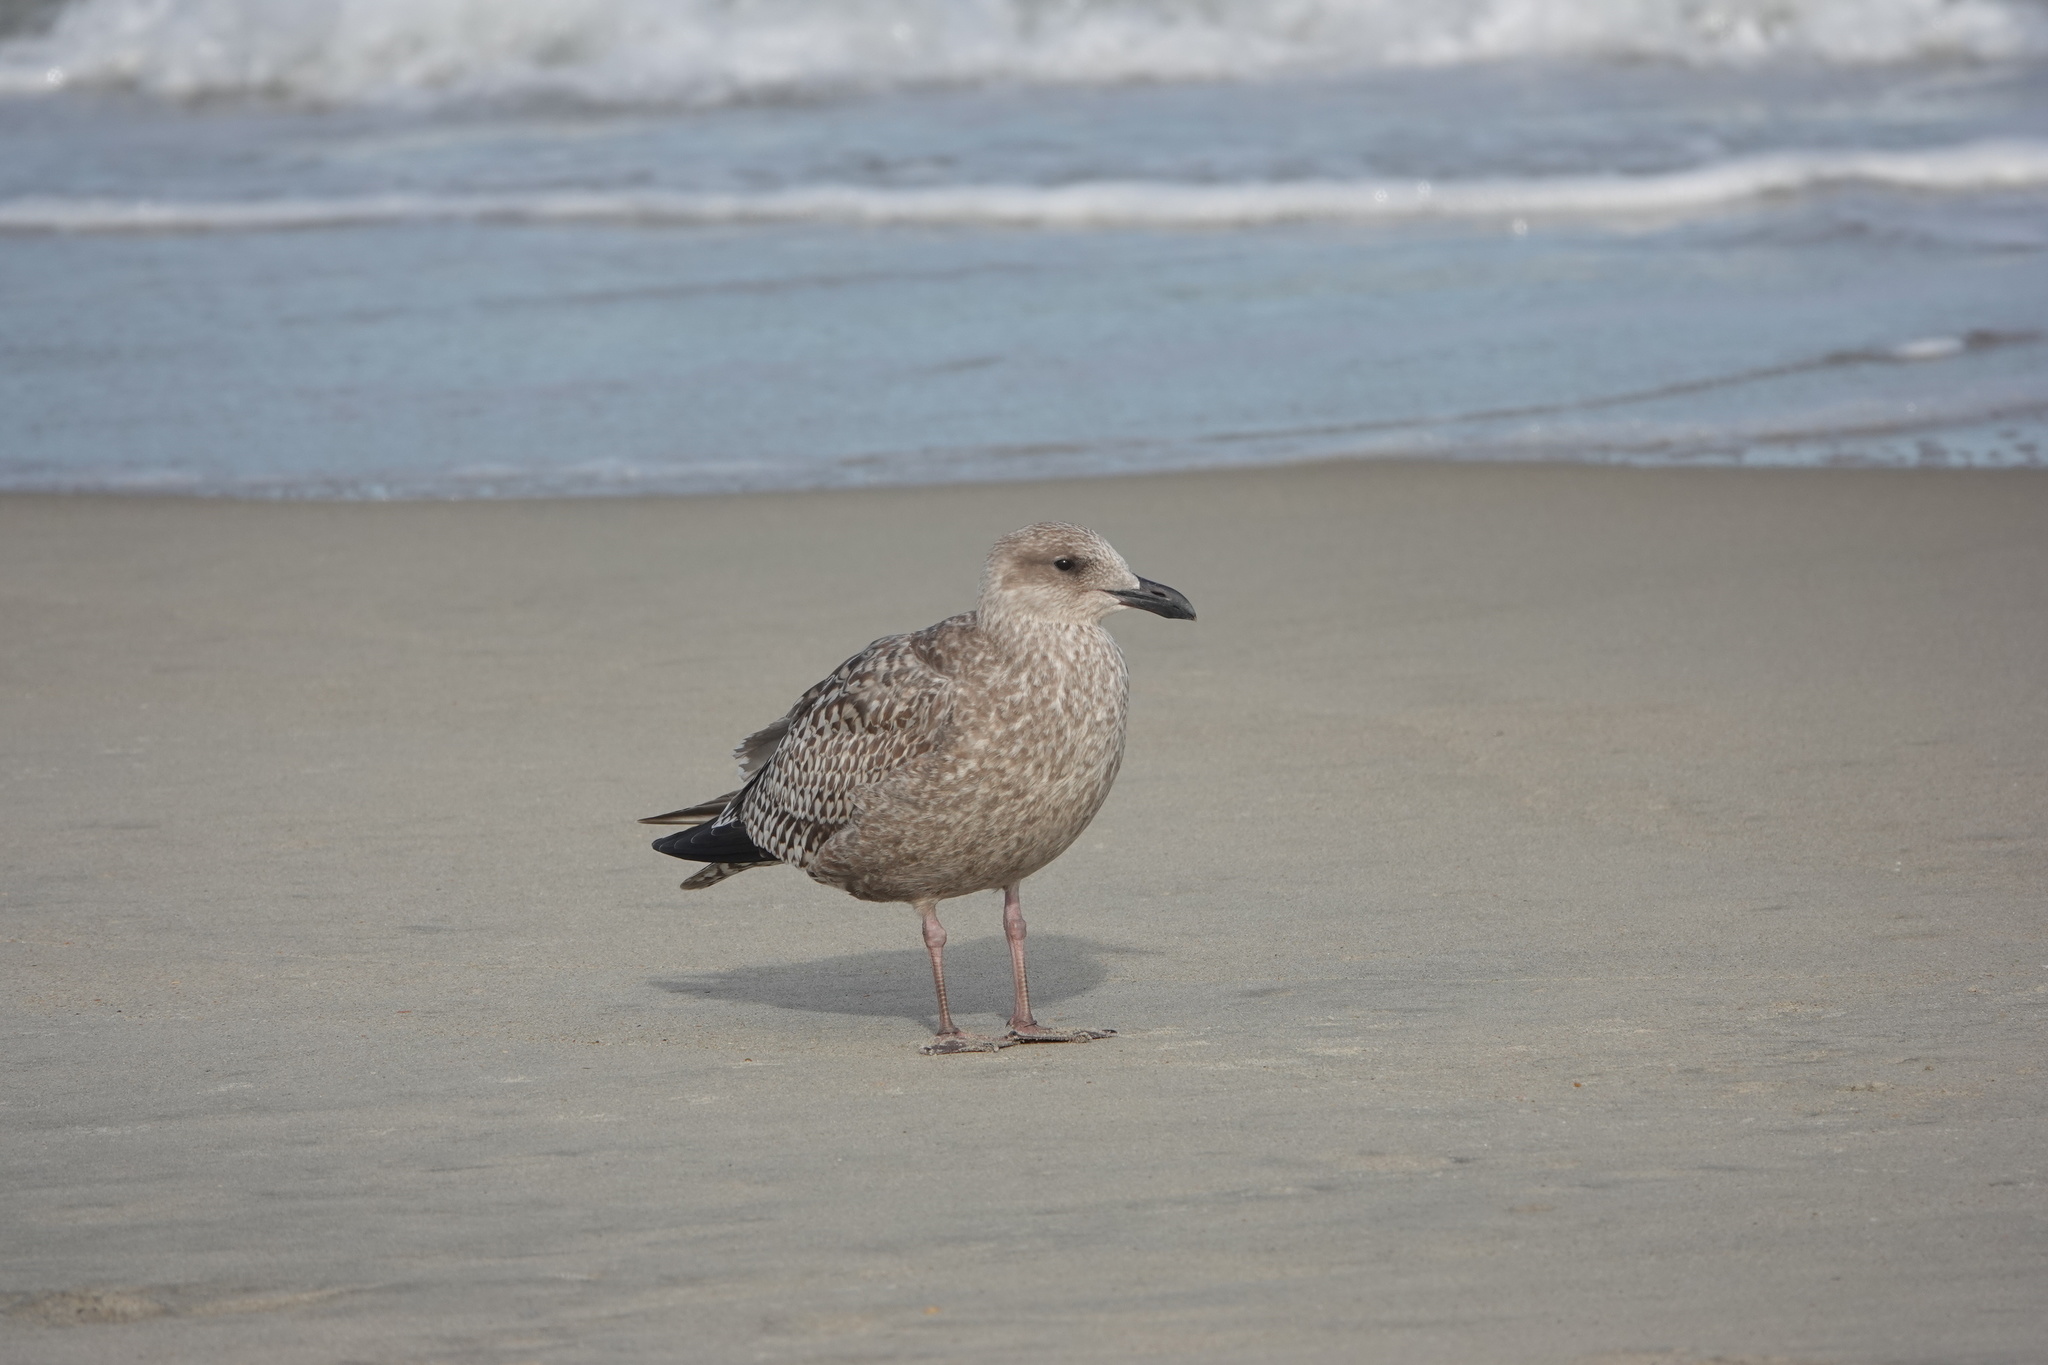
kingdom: Animalia
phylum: Chordata
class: Aves
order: Charadriiformes
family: Laridae
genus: Larus
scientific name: Larus argentatus
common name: Herring gull
